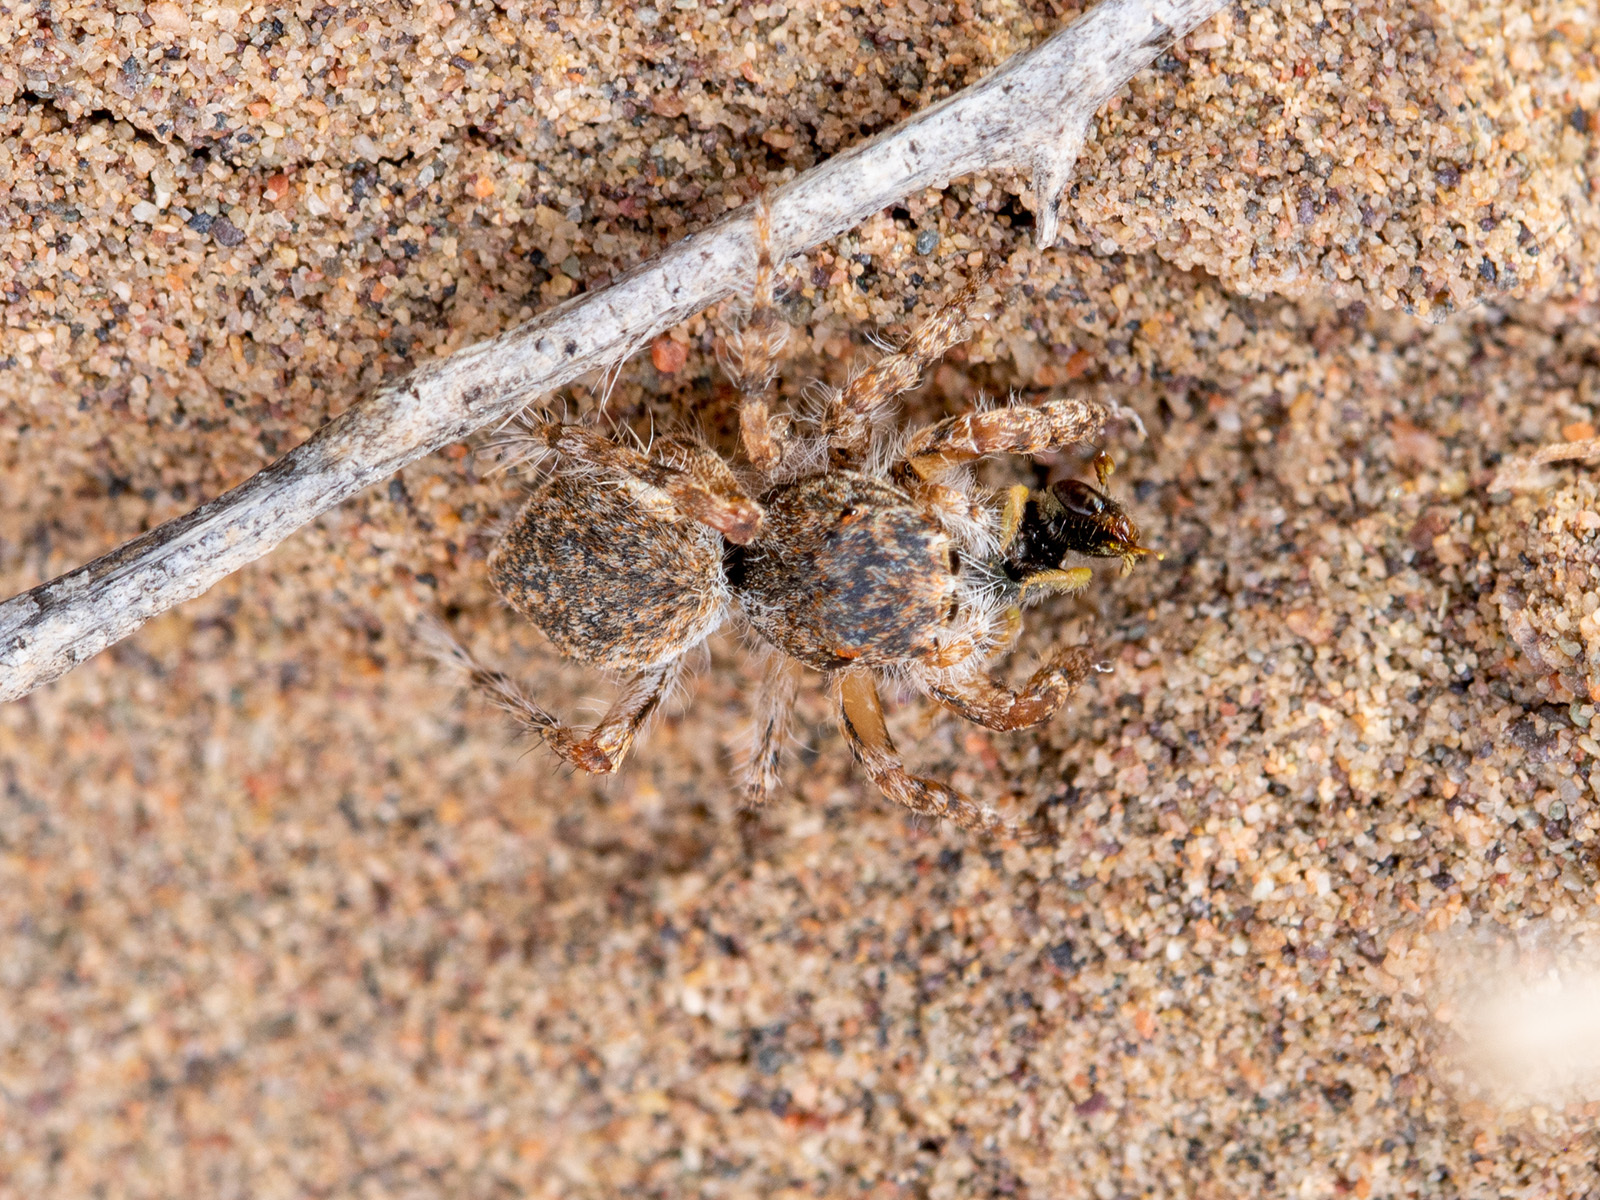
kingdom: Animalia
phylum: Arthropoda
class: Arachnida
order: Araneae
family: Salticidae
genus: Yllenus
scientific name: Yllenus uiguricus
